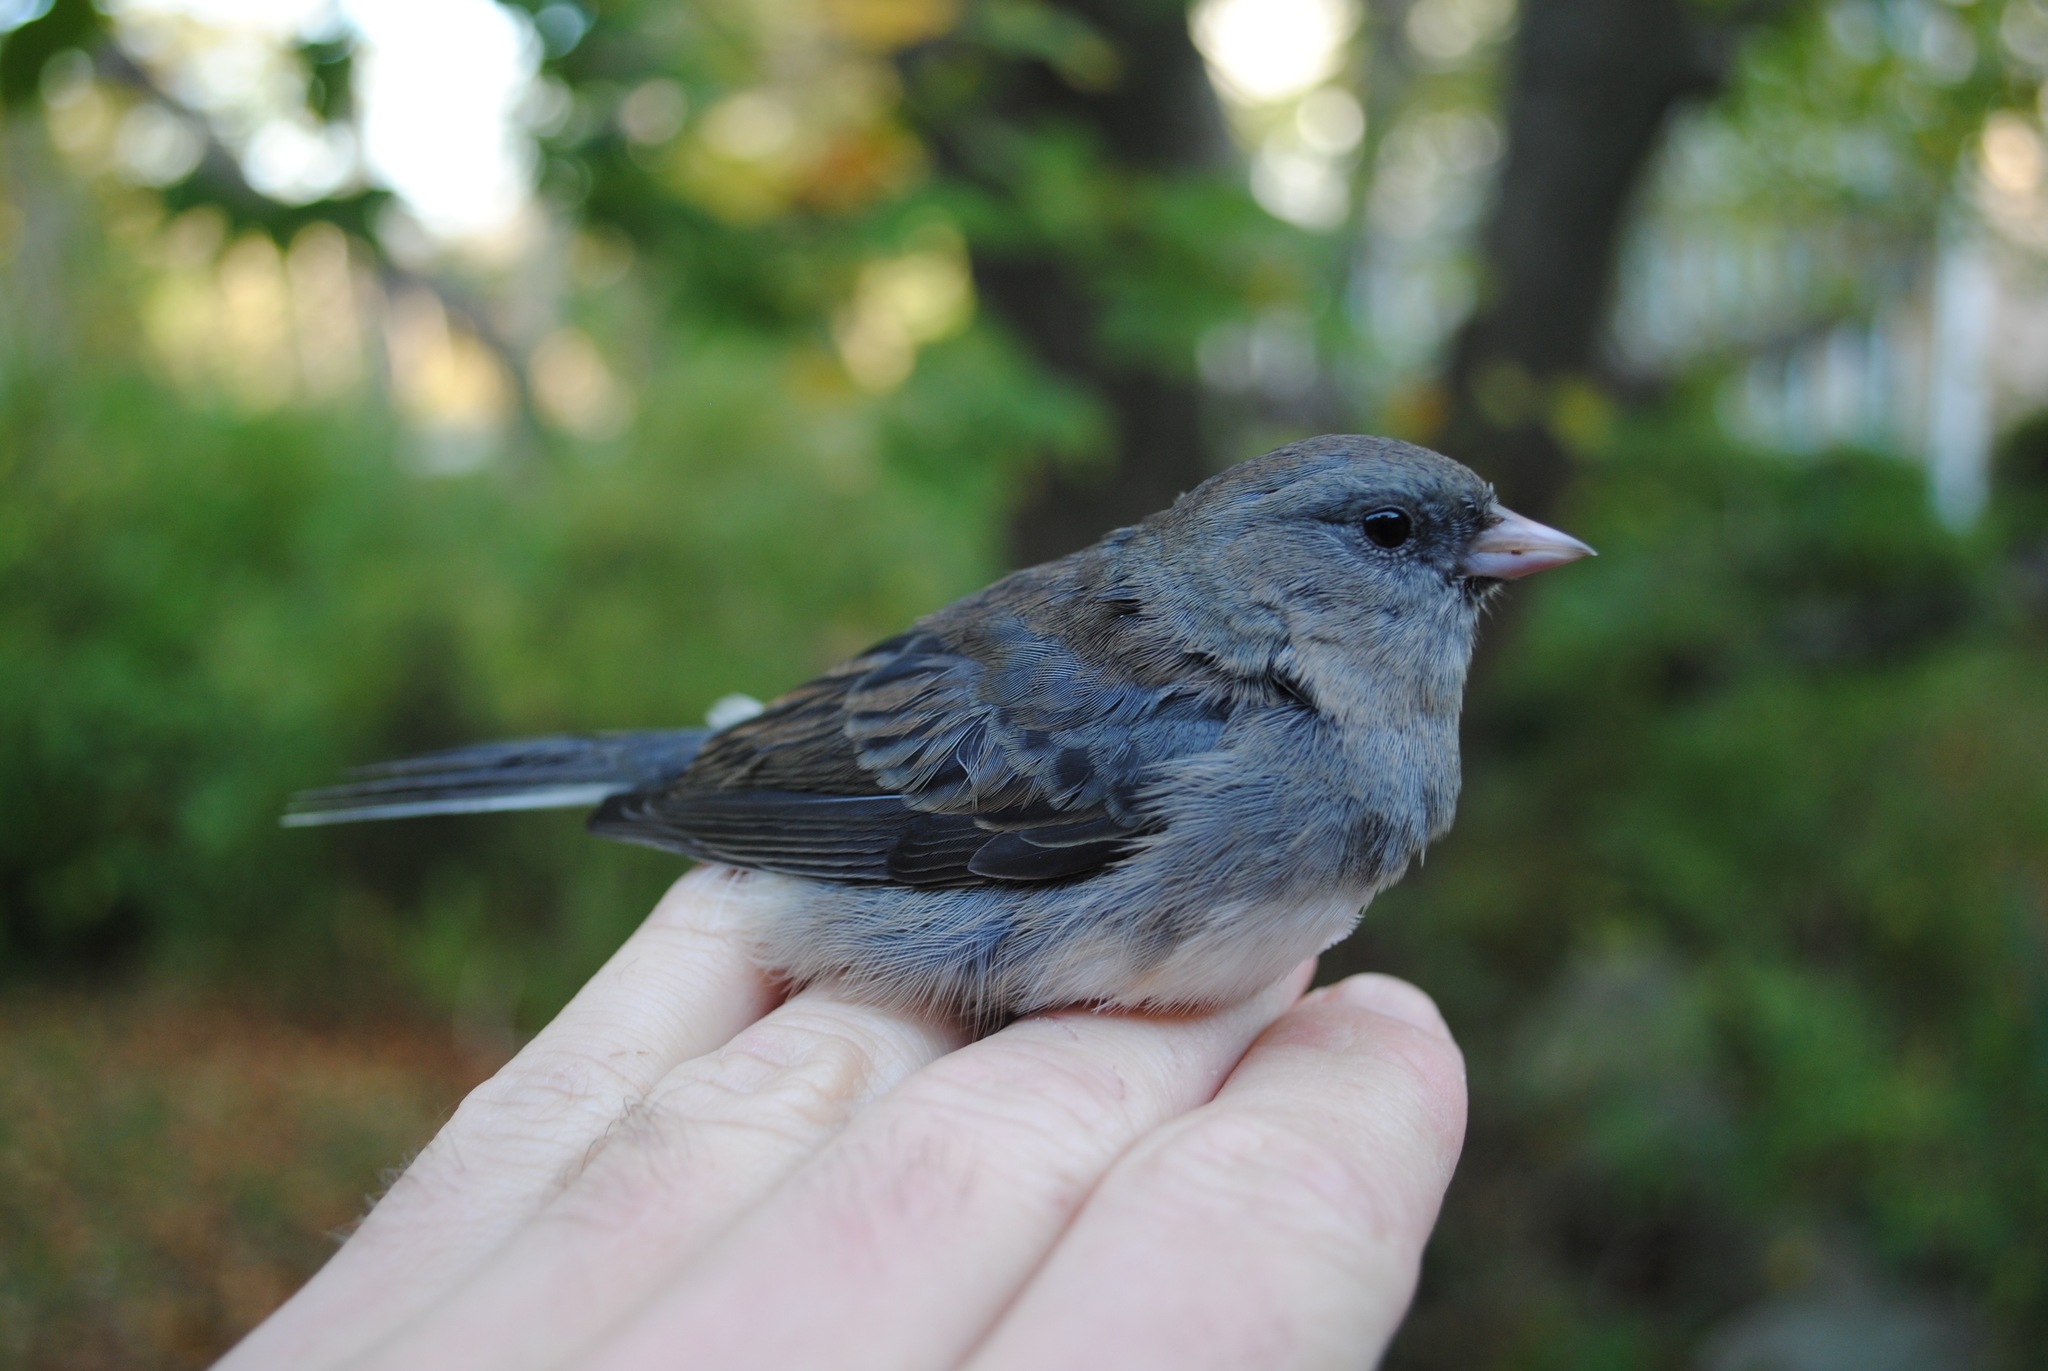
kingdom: Animalia
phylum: Chordata
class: Aves
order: Passeriformes
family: Passerellidae
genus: Junco
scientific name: Junco hyemalis
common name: Dark-eyed junco
